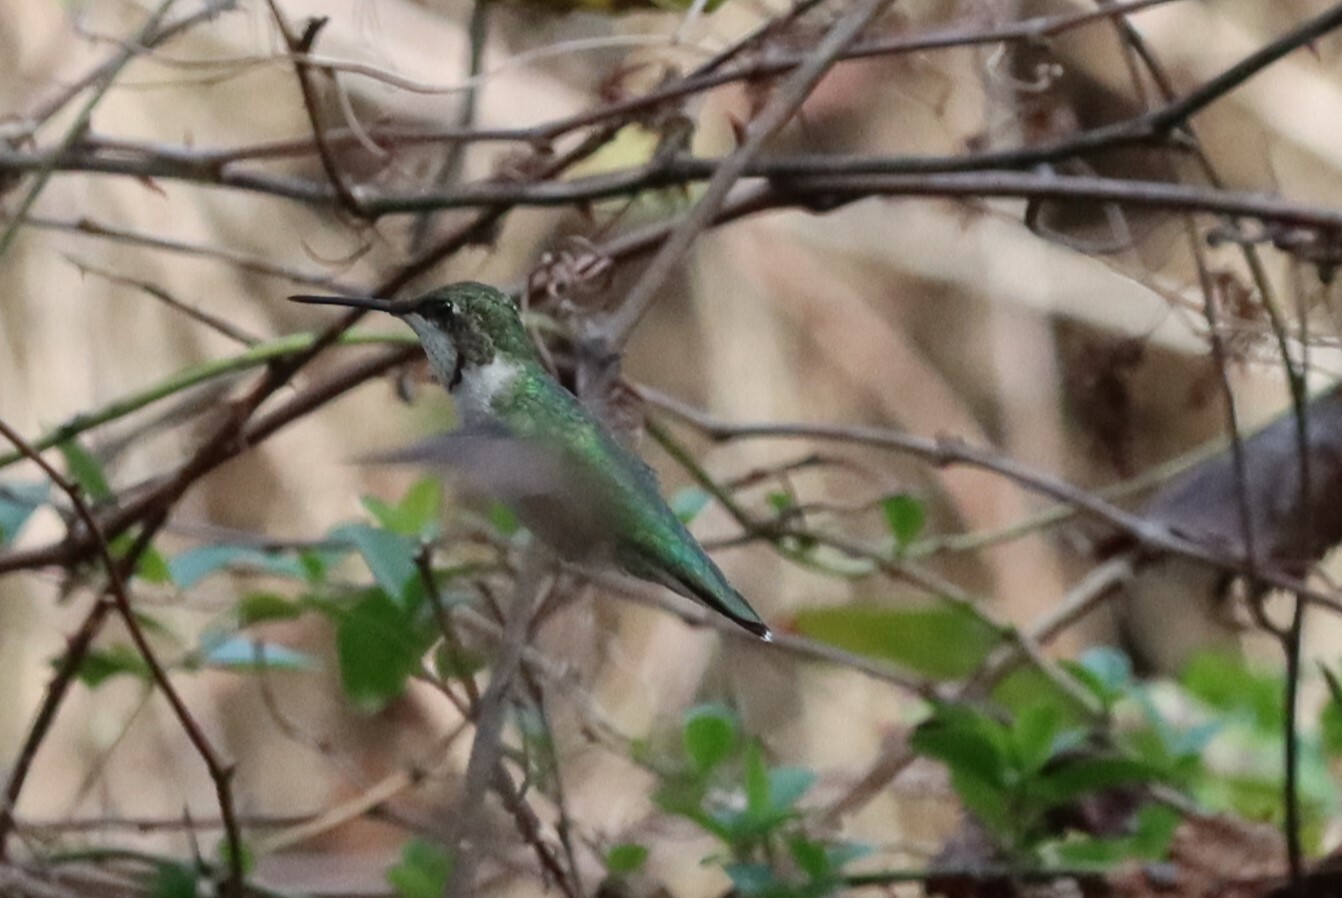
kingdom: Animalia
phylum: Chordata
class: Aves
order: Apodiformes
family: Trochilidae
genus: Archilochus
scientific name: Archilochus colubris
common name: Ruby-throated hummingbird
